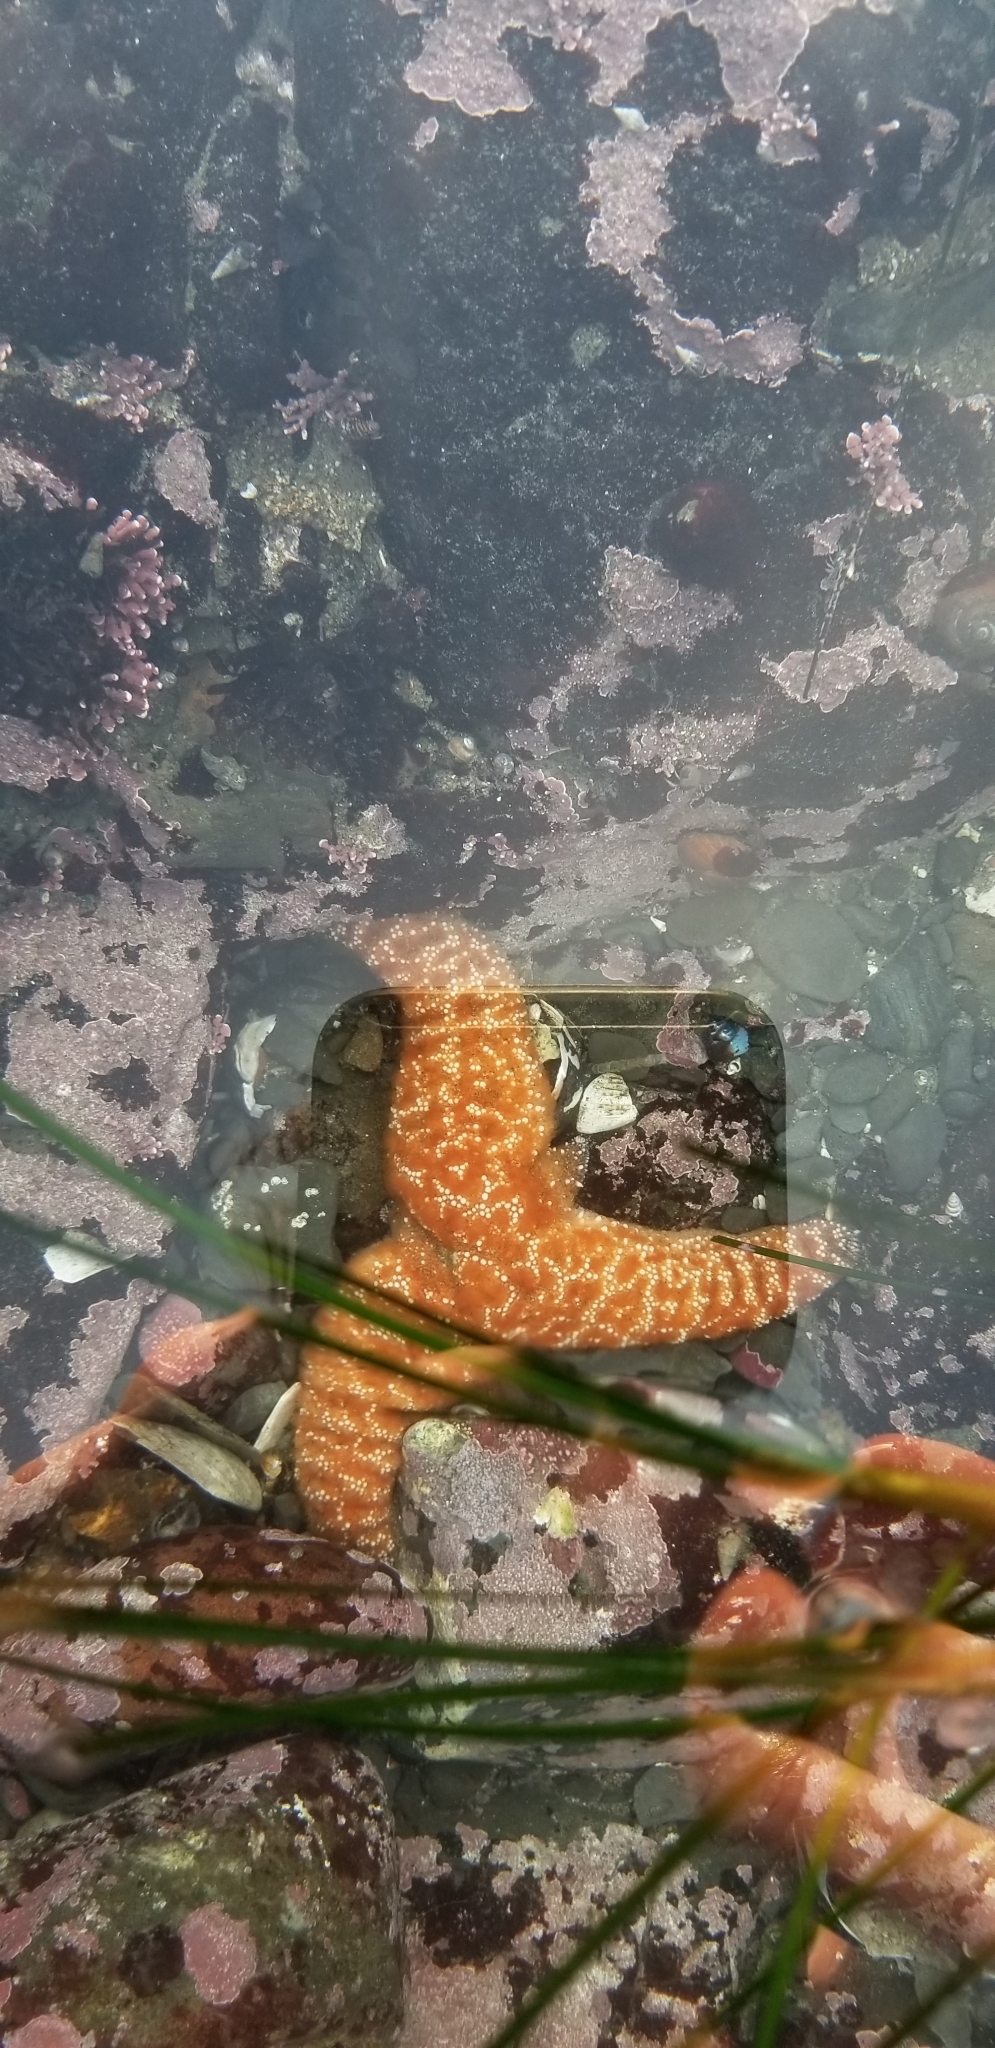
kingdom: Animalia
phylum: Echinodermata
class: Asteroidea
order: Forcipulatida
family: Asteriidae
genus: Pisaster
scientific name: Pisaster ochraceus
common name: Ochre stars
